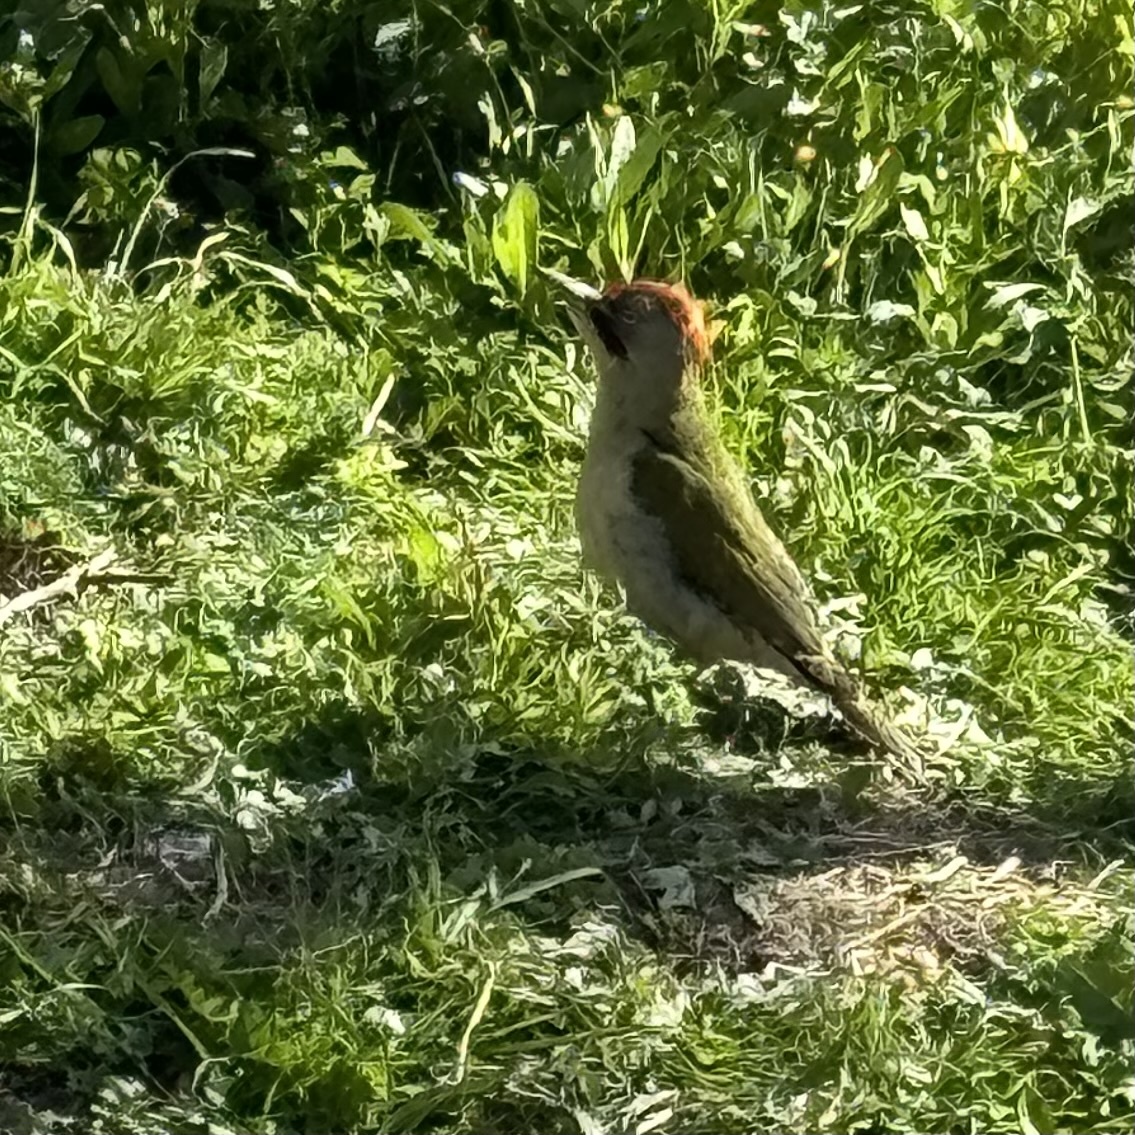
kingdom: Animalia
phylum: Chordata
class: Aves
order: Piciformes
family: Picidae
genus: Picus
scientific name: Picus sharpei
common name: Iberian green woodpecker
